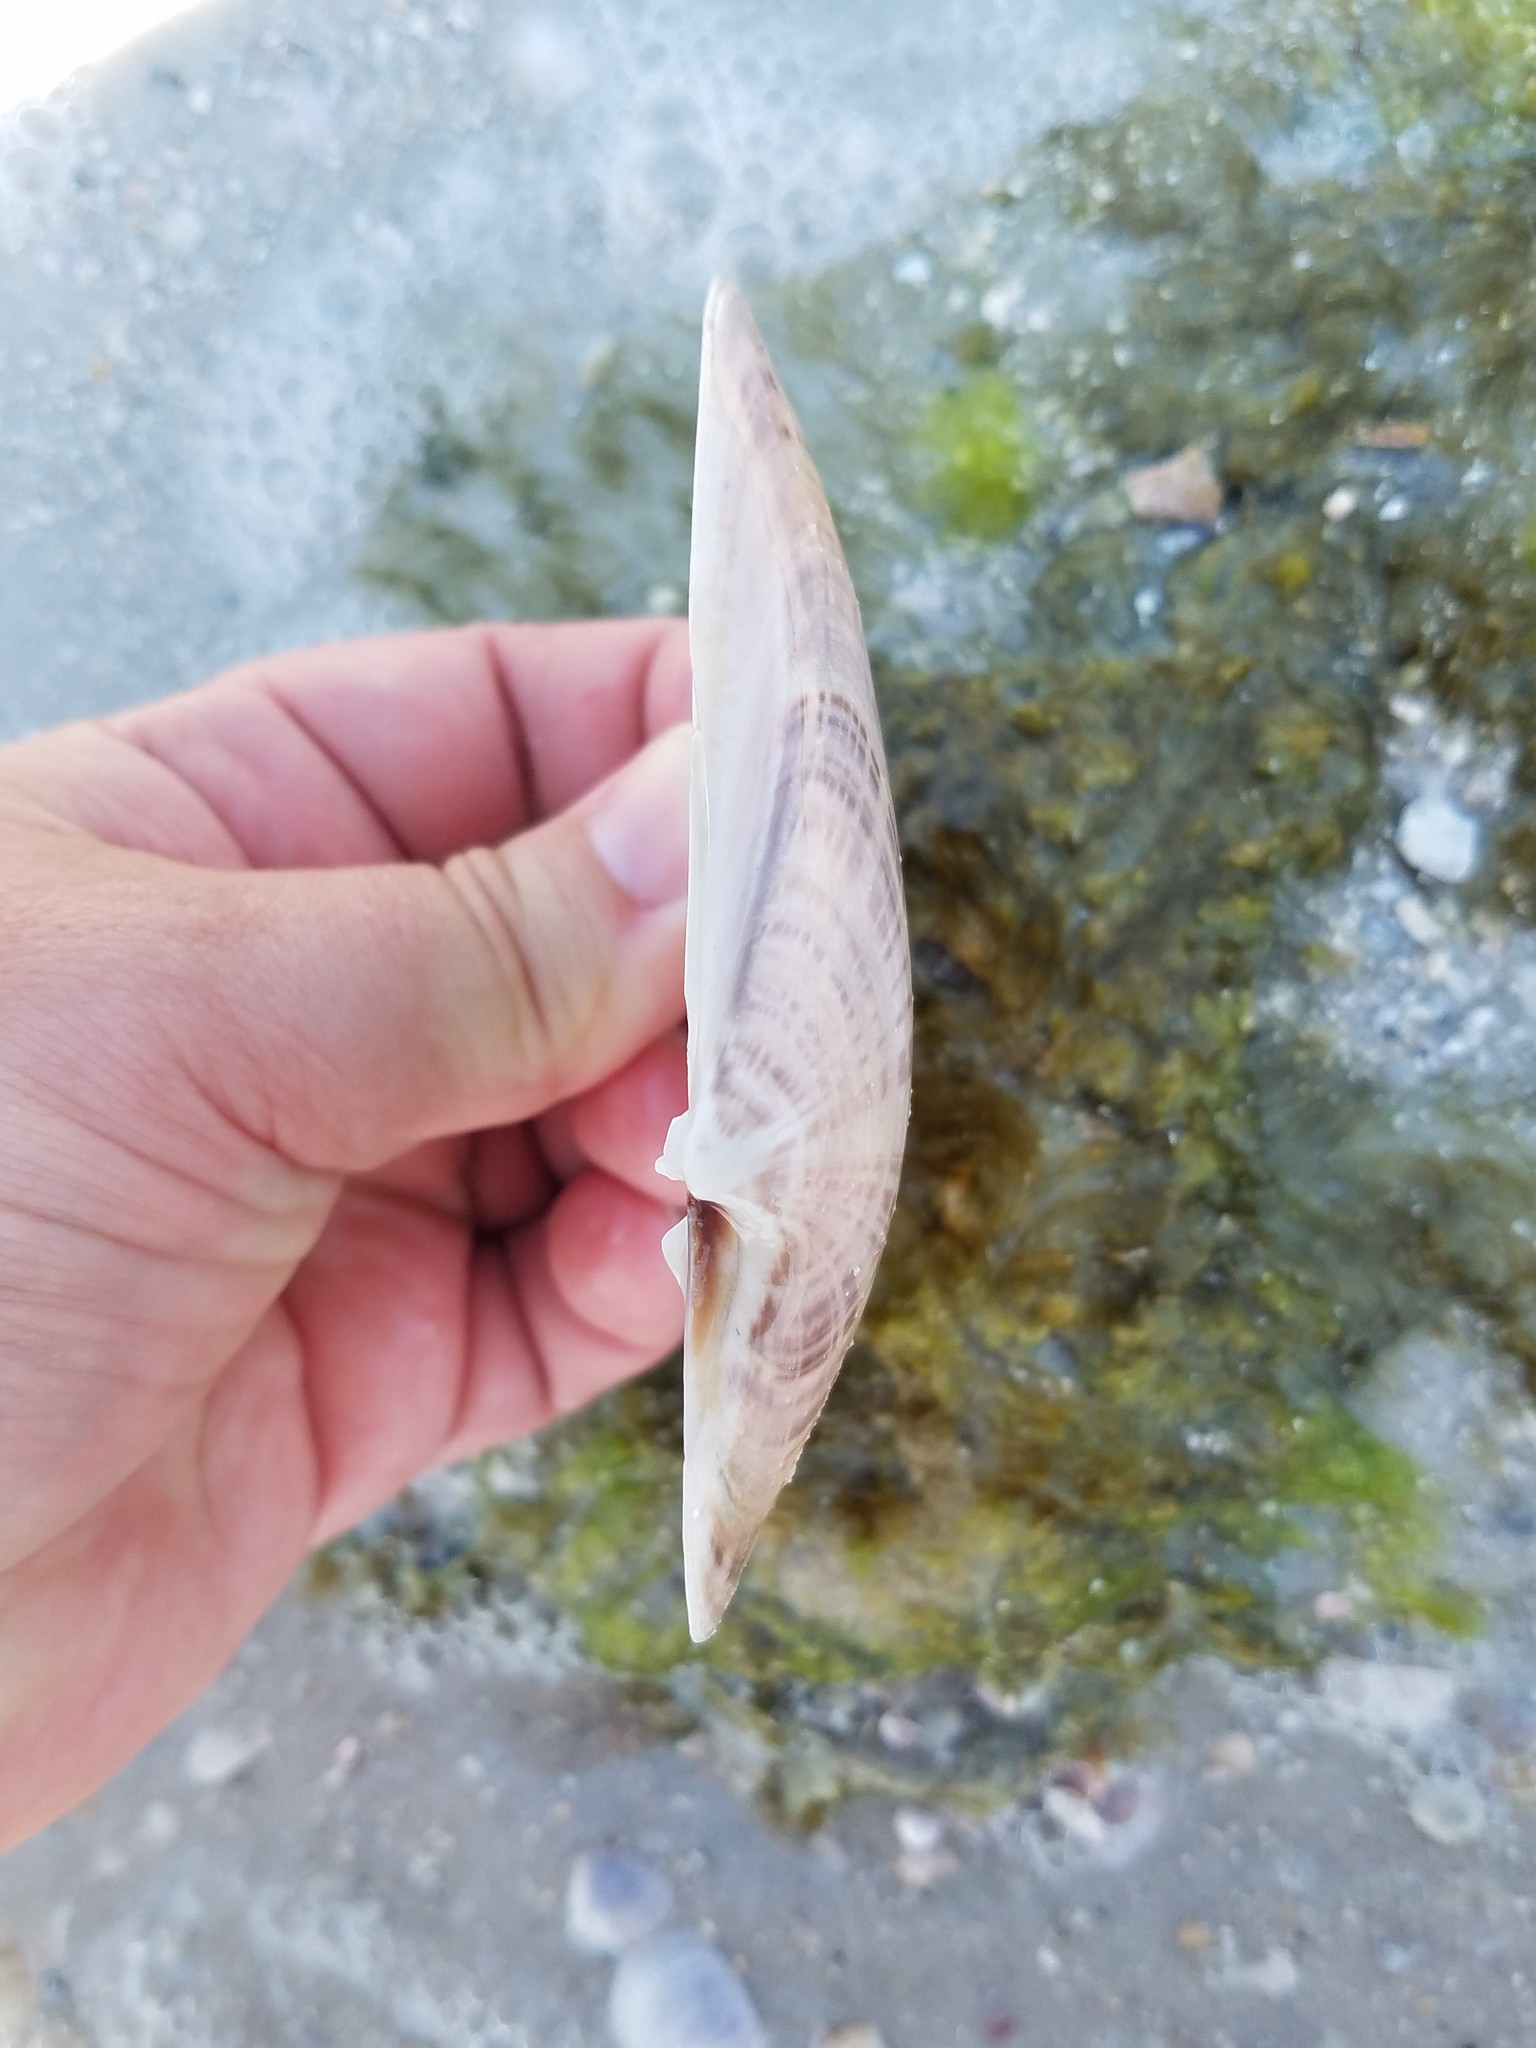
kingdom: Animalia
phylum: Mollusca
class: Bivalvia
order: Venerida
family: Veneridae
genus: Macrocallista
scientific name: Macrocallista nimbosa
